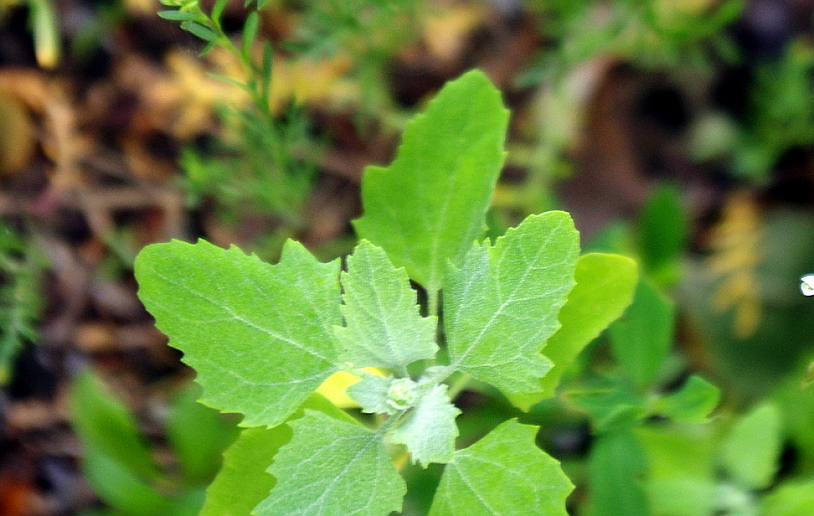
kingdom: Plantae
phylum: Tracheophyta
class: Magnoliopsida
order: Caryophyllales
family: Amaranthaceae
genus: Chenopodium
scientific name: Chenopodium album
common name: Fat-hen
